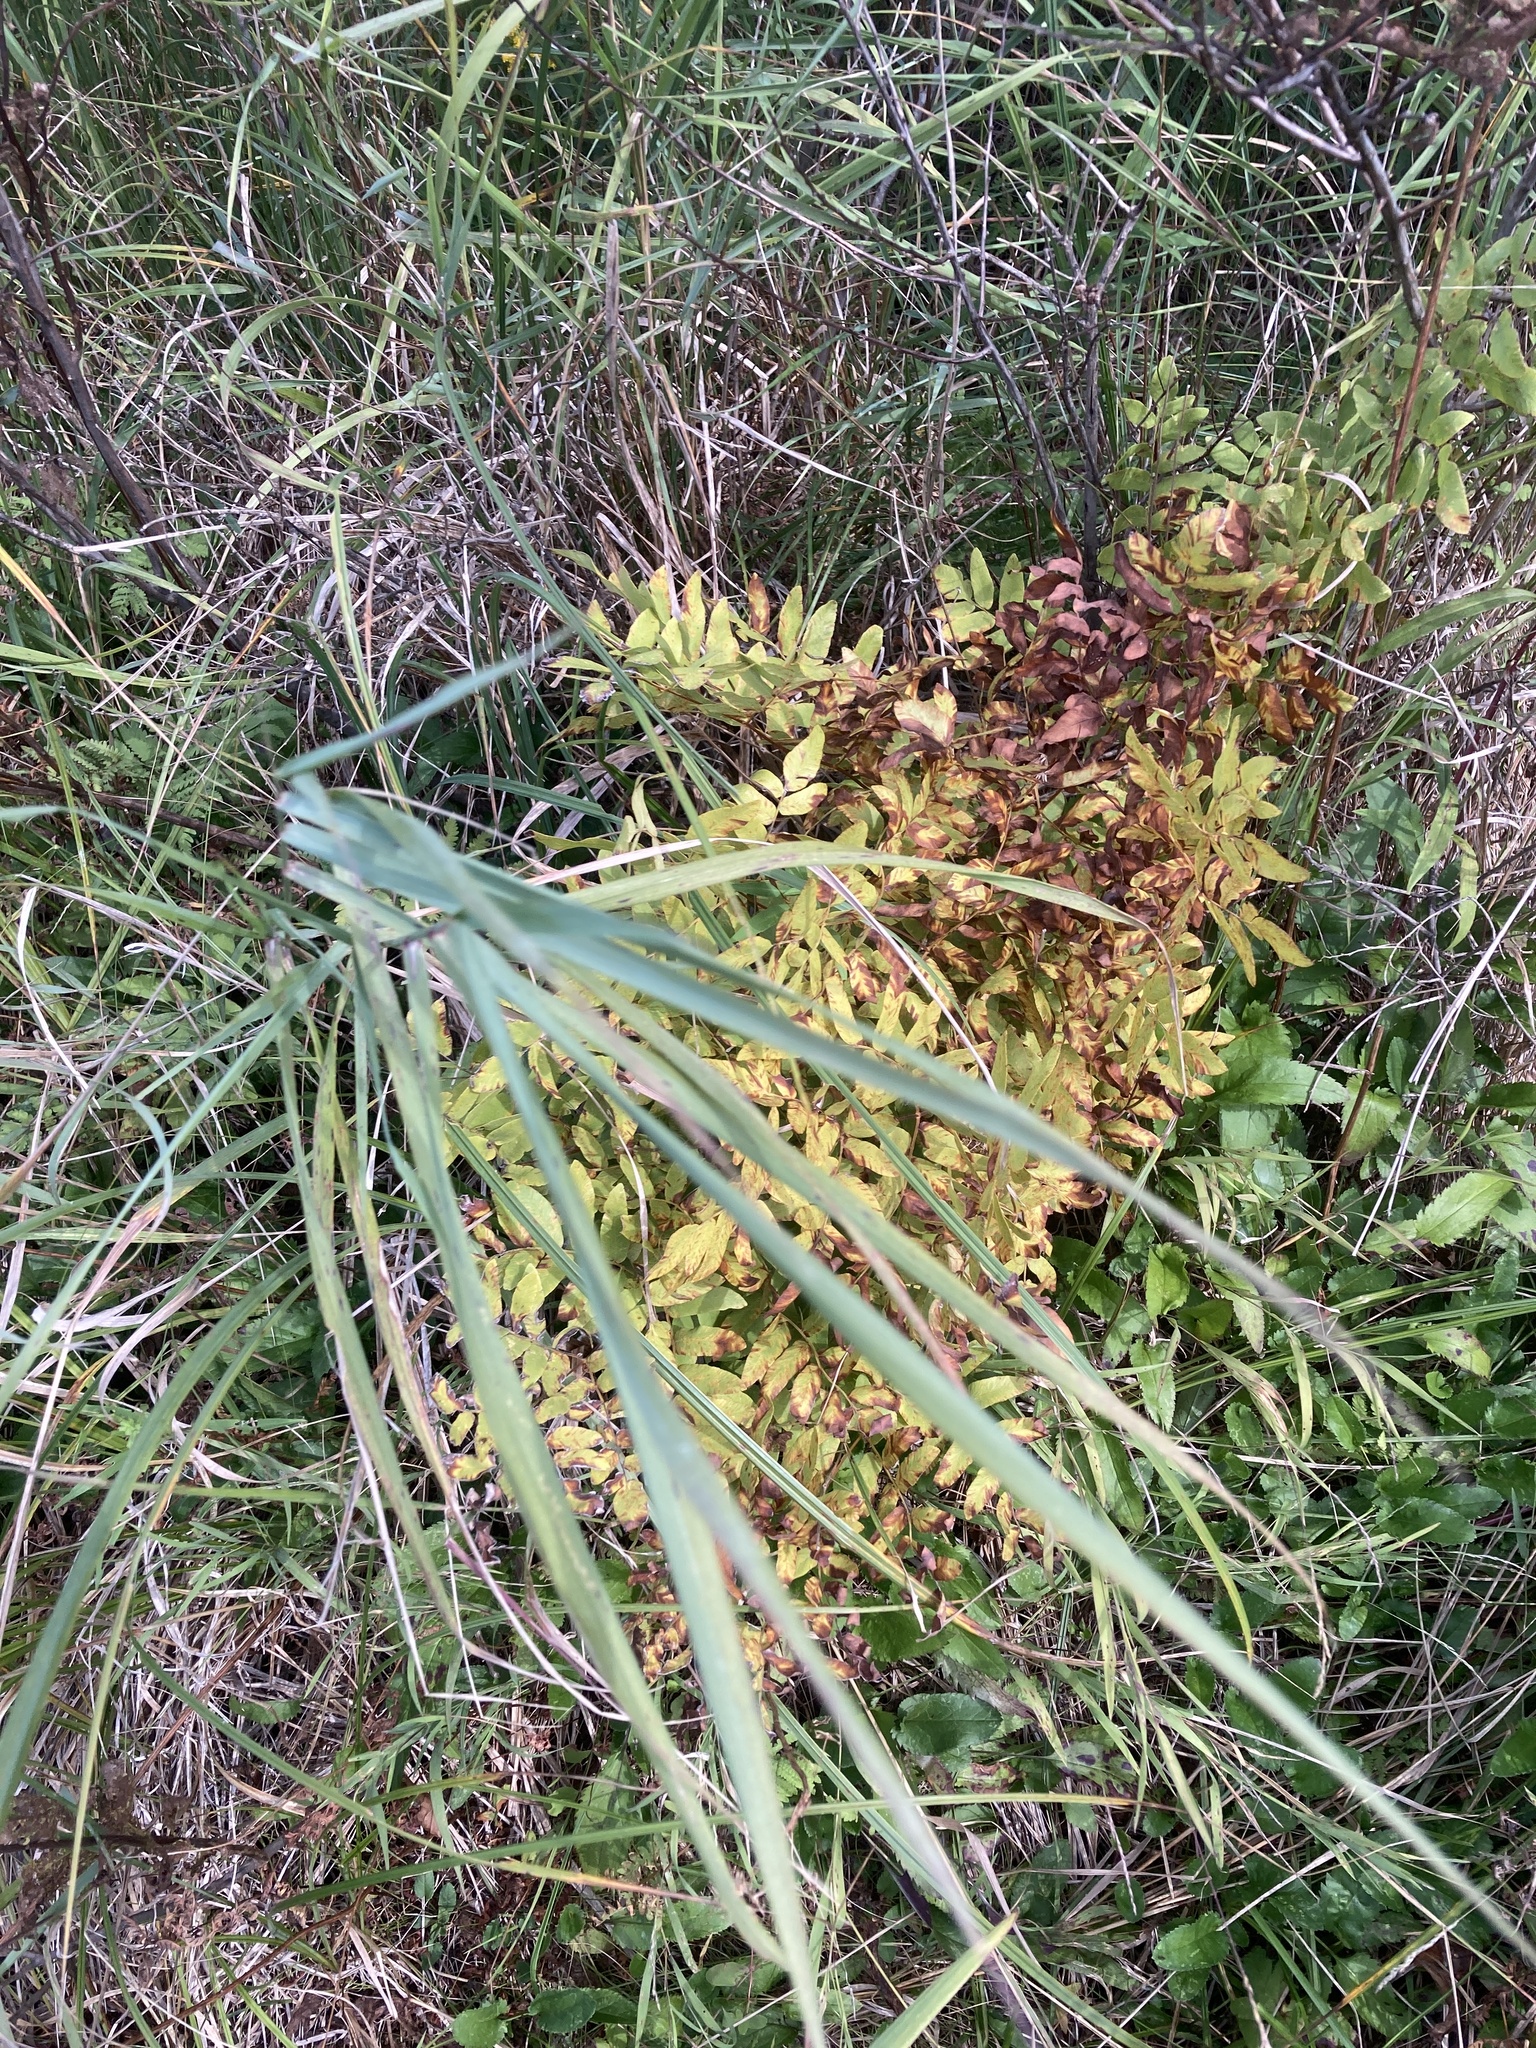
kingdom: Plantae
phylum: Tracheophyta
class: Polypodiopsida
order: Osmundales
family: Osmundaceae
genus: Osmunda
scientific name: Osmunda spectabilis
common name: American royal fern
